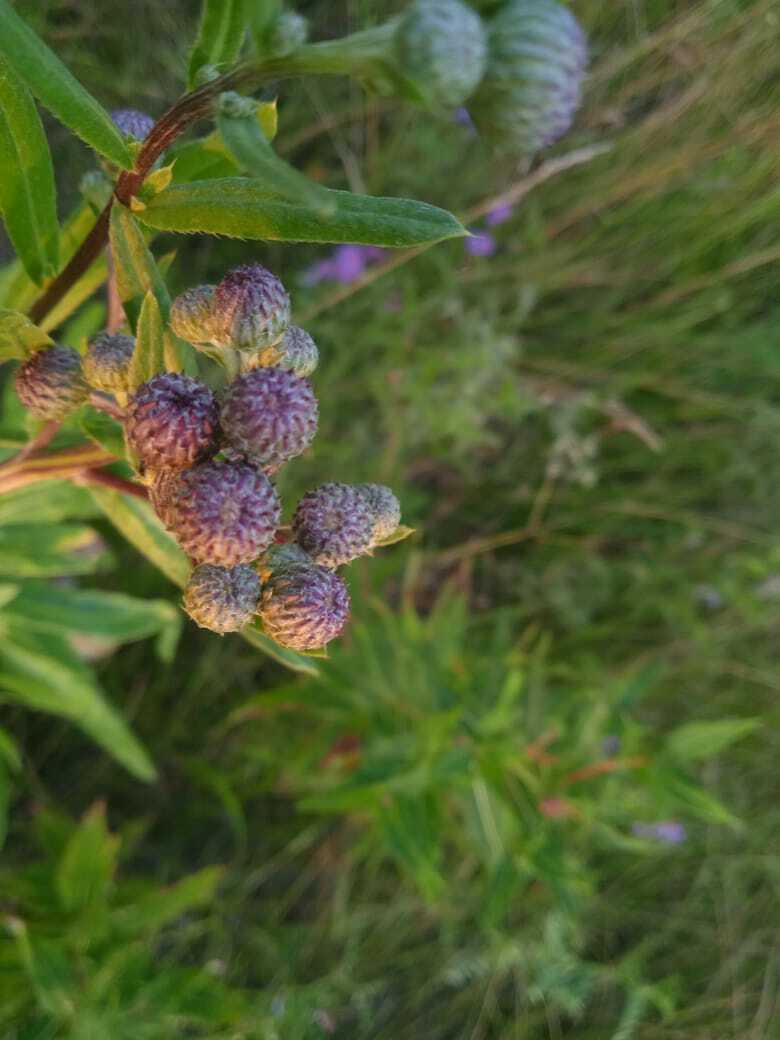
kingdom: Plantae
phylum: Tracheophyta
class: Magnoliopsida
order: Asterales
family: Asteraceae
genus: Cirsium
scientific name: Cirsium arvense
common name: Creeping thistle
